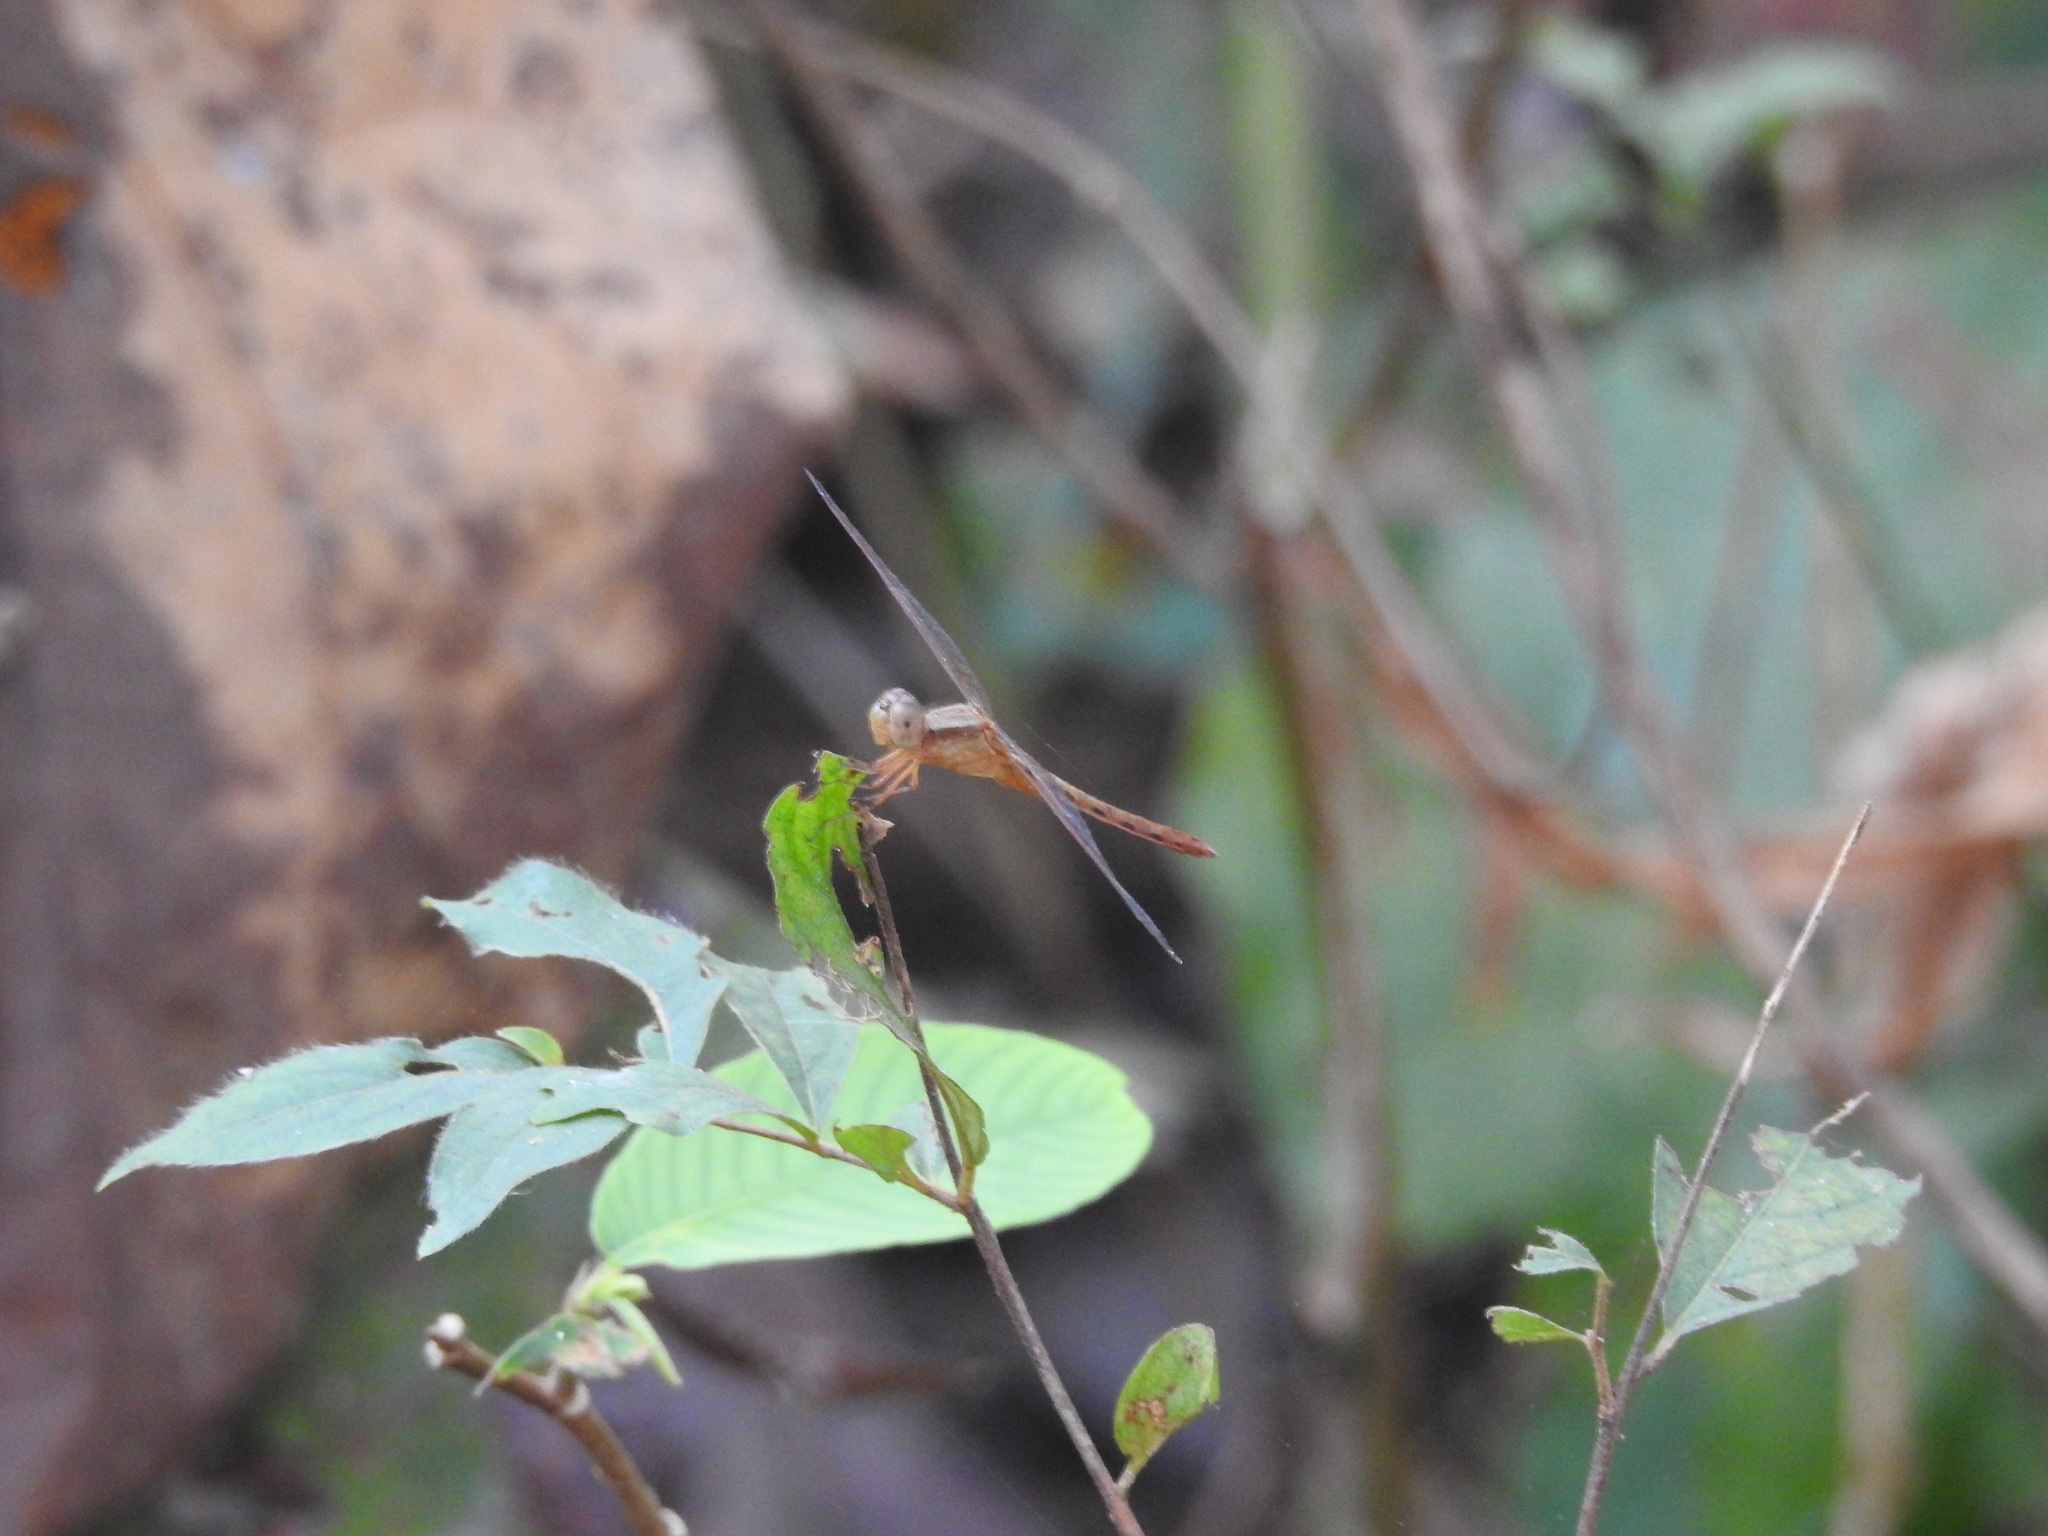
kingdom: Animalia
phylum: Arthropoda
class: Insecta
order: Odonata
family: Libellulidae
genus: Neurothemis
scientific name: Neurothemis intermedia
